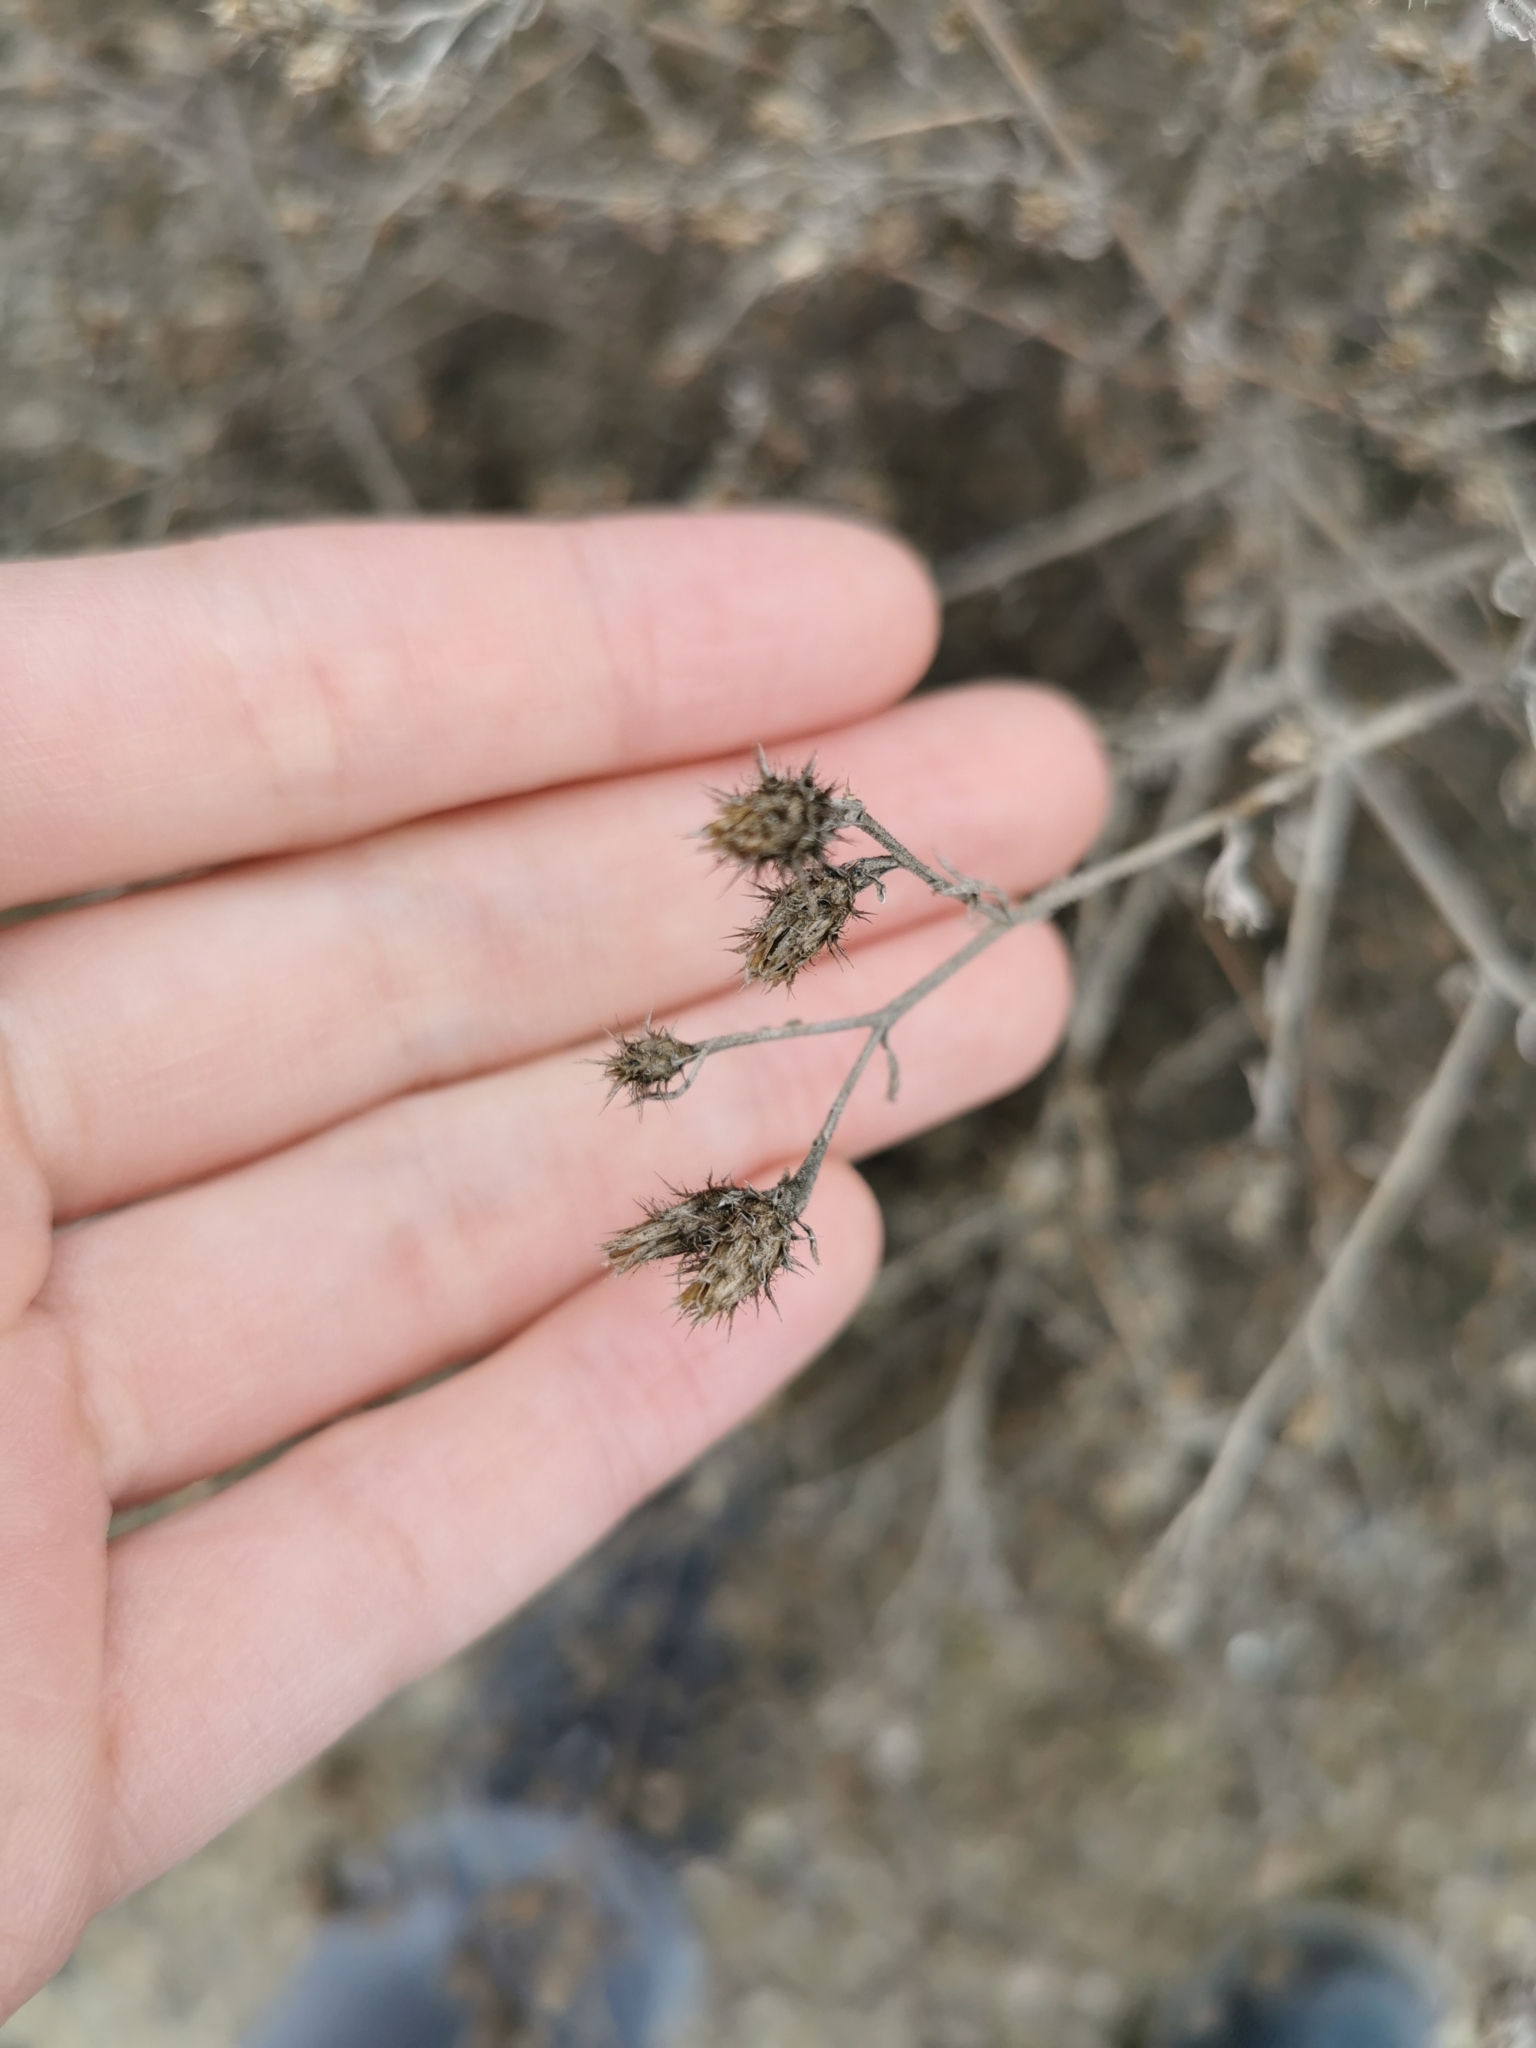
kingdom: Plantae
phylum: Tracheophyta
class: Magnoliopsida
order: Asterales
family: Asteraceae
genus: Centaurea
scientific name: Centaurea diffusa
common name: Diffuse knapweed
